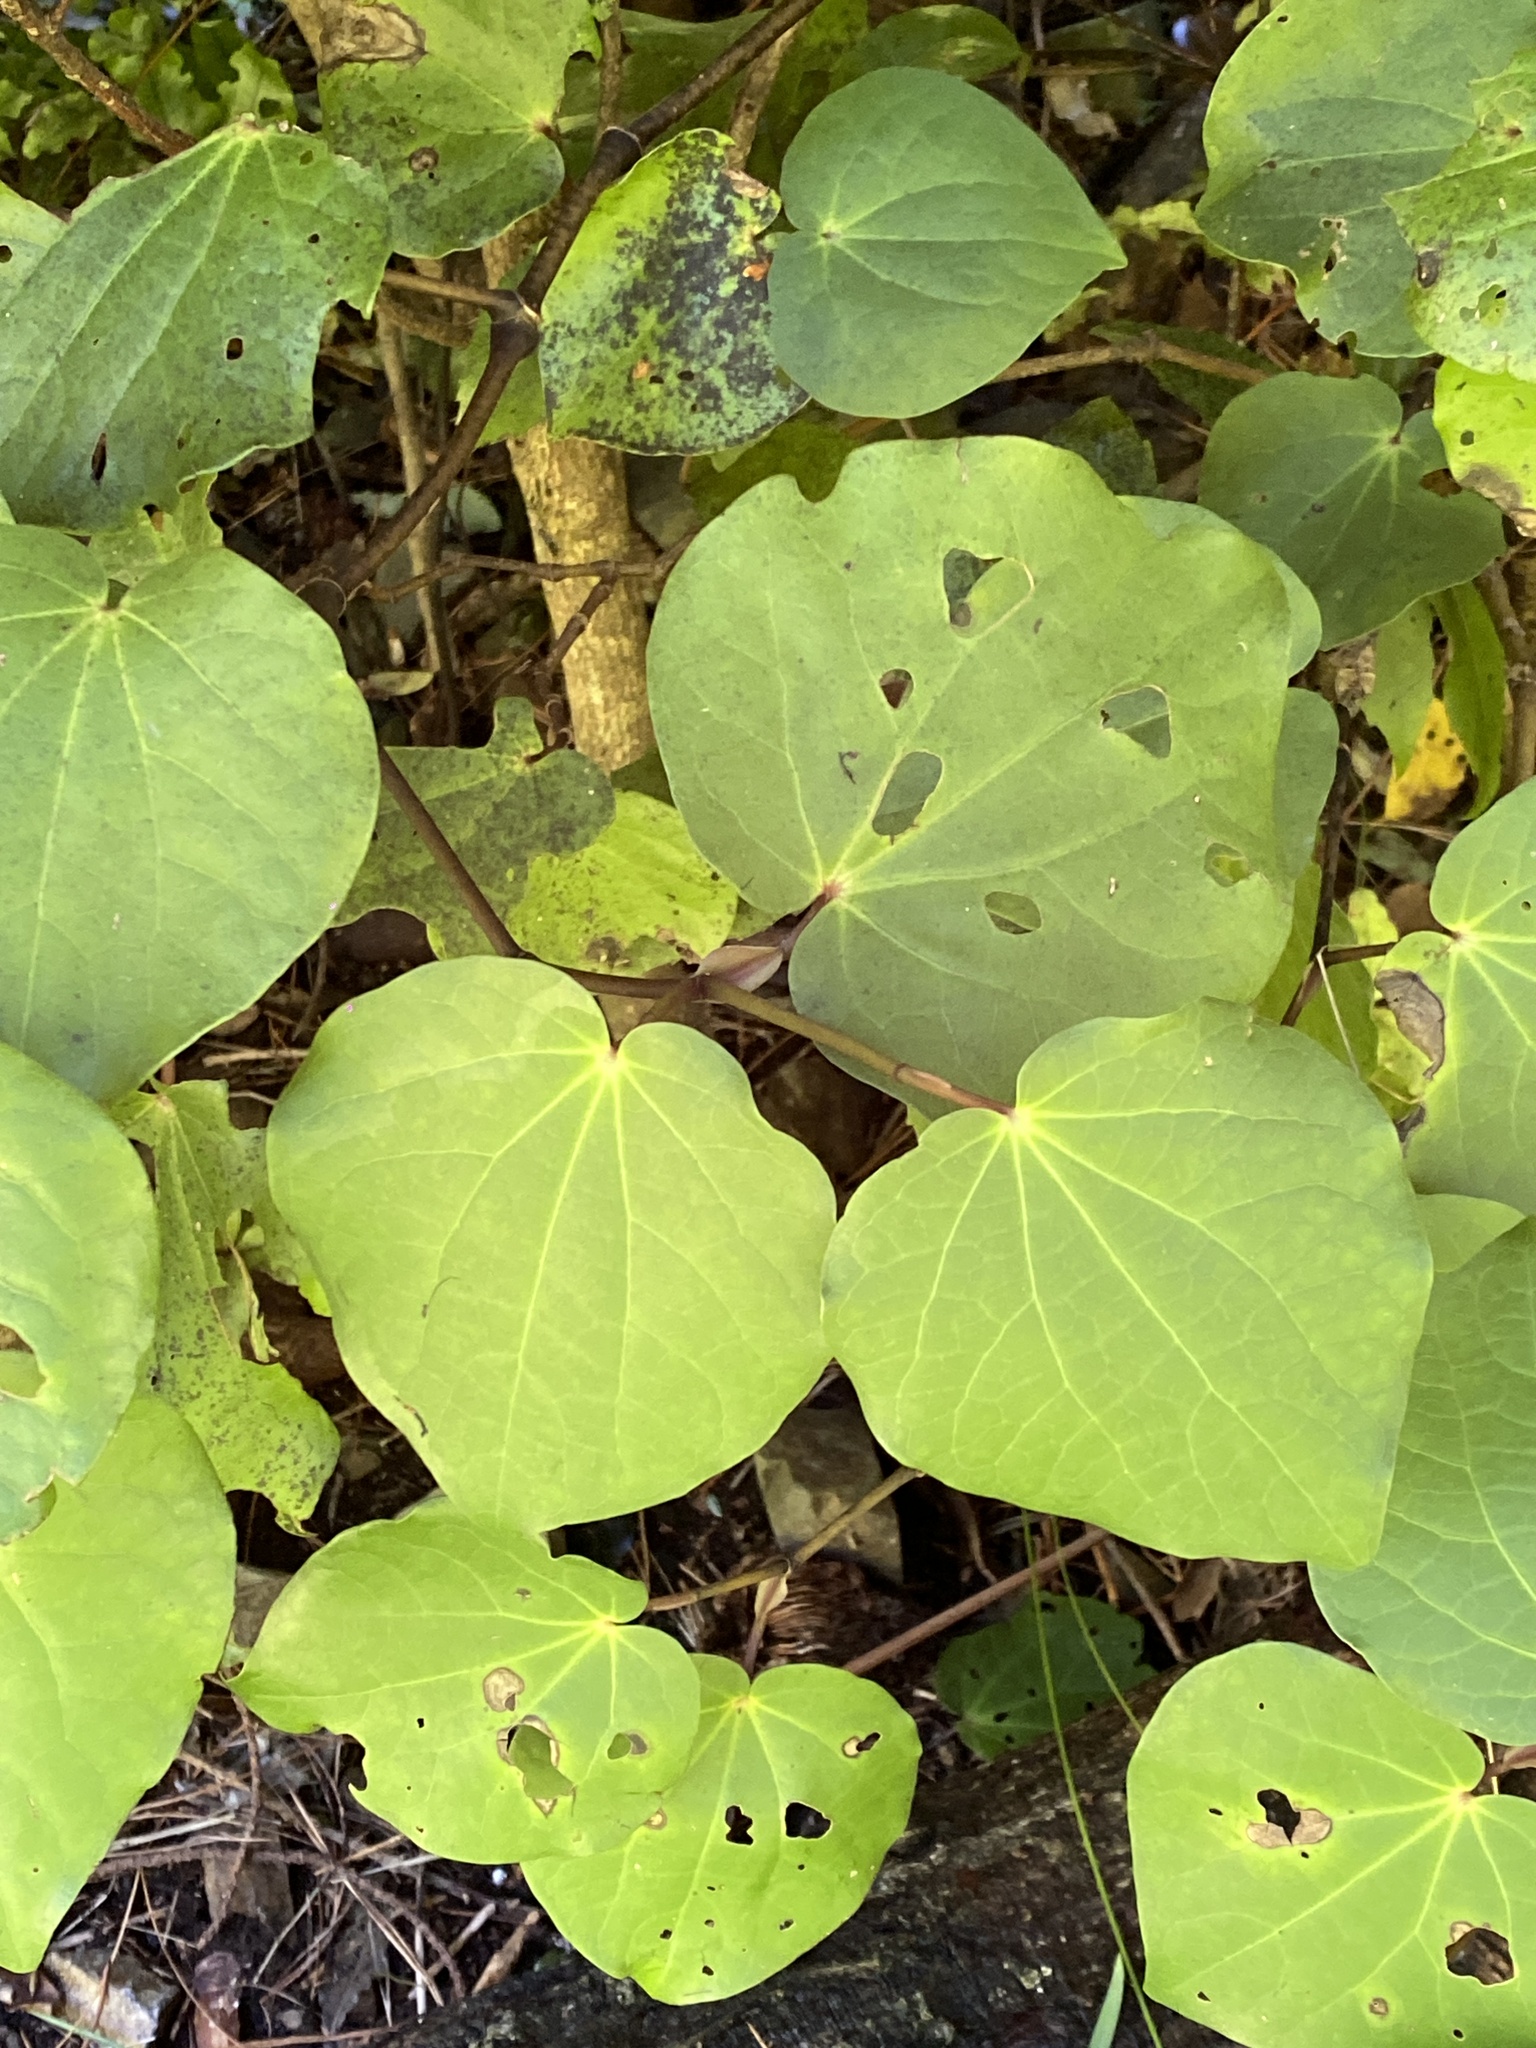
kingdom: Plantae
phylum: Tracheophyta
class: Magnoliopsida
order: Piperales
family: Piperaceae
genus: Macropiper
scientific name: Macropiper excelsum
